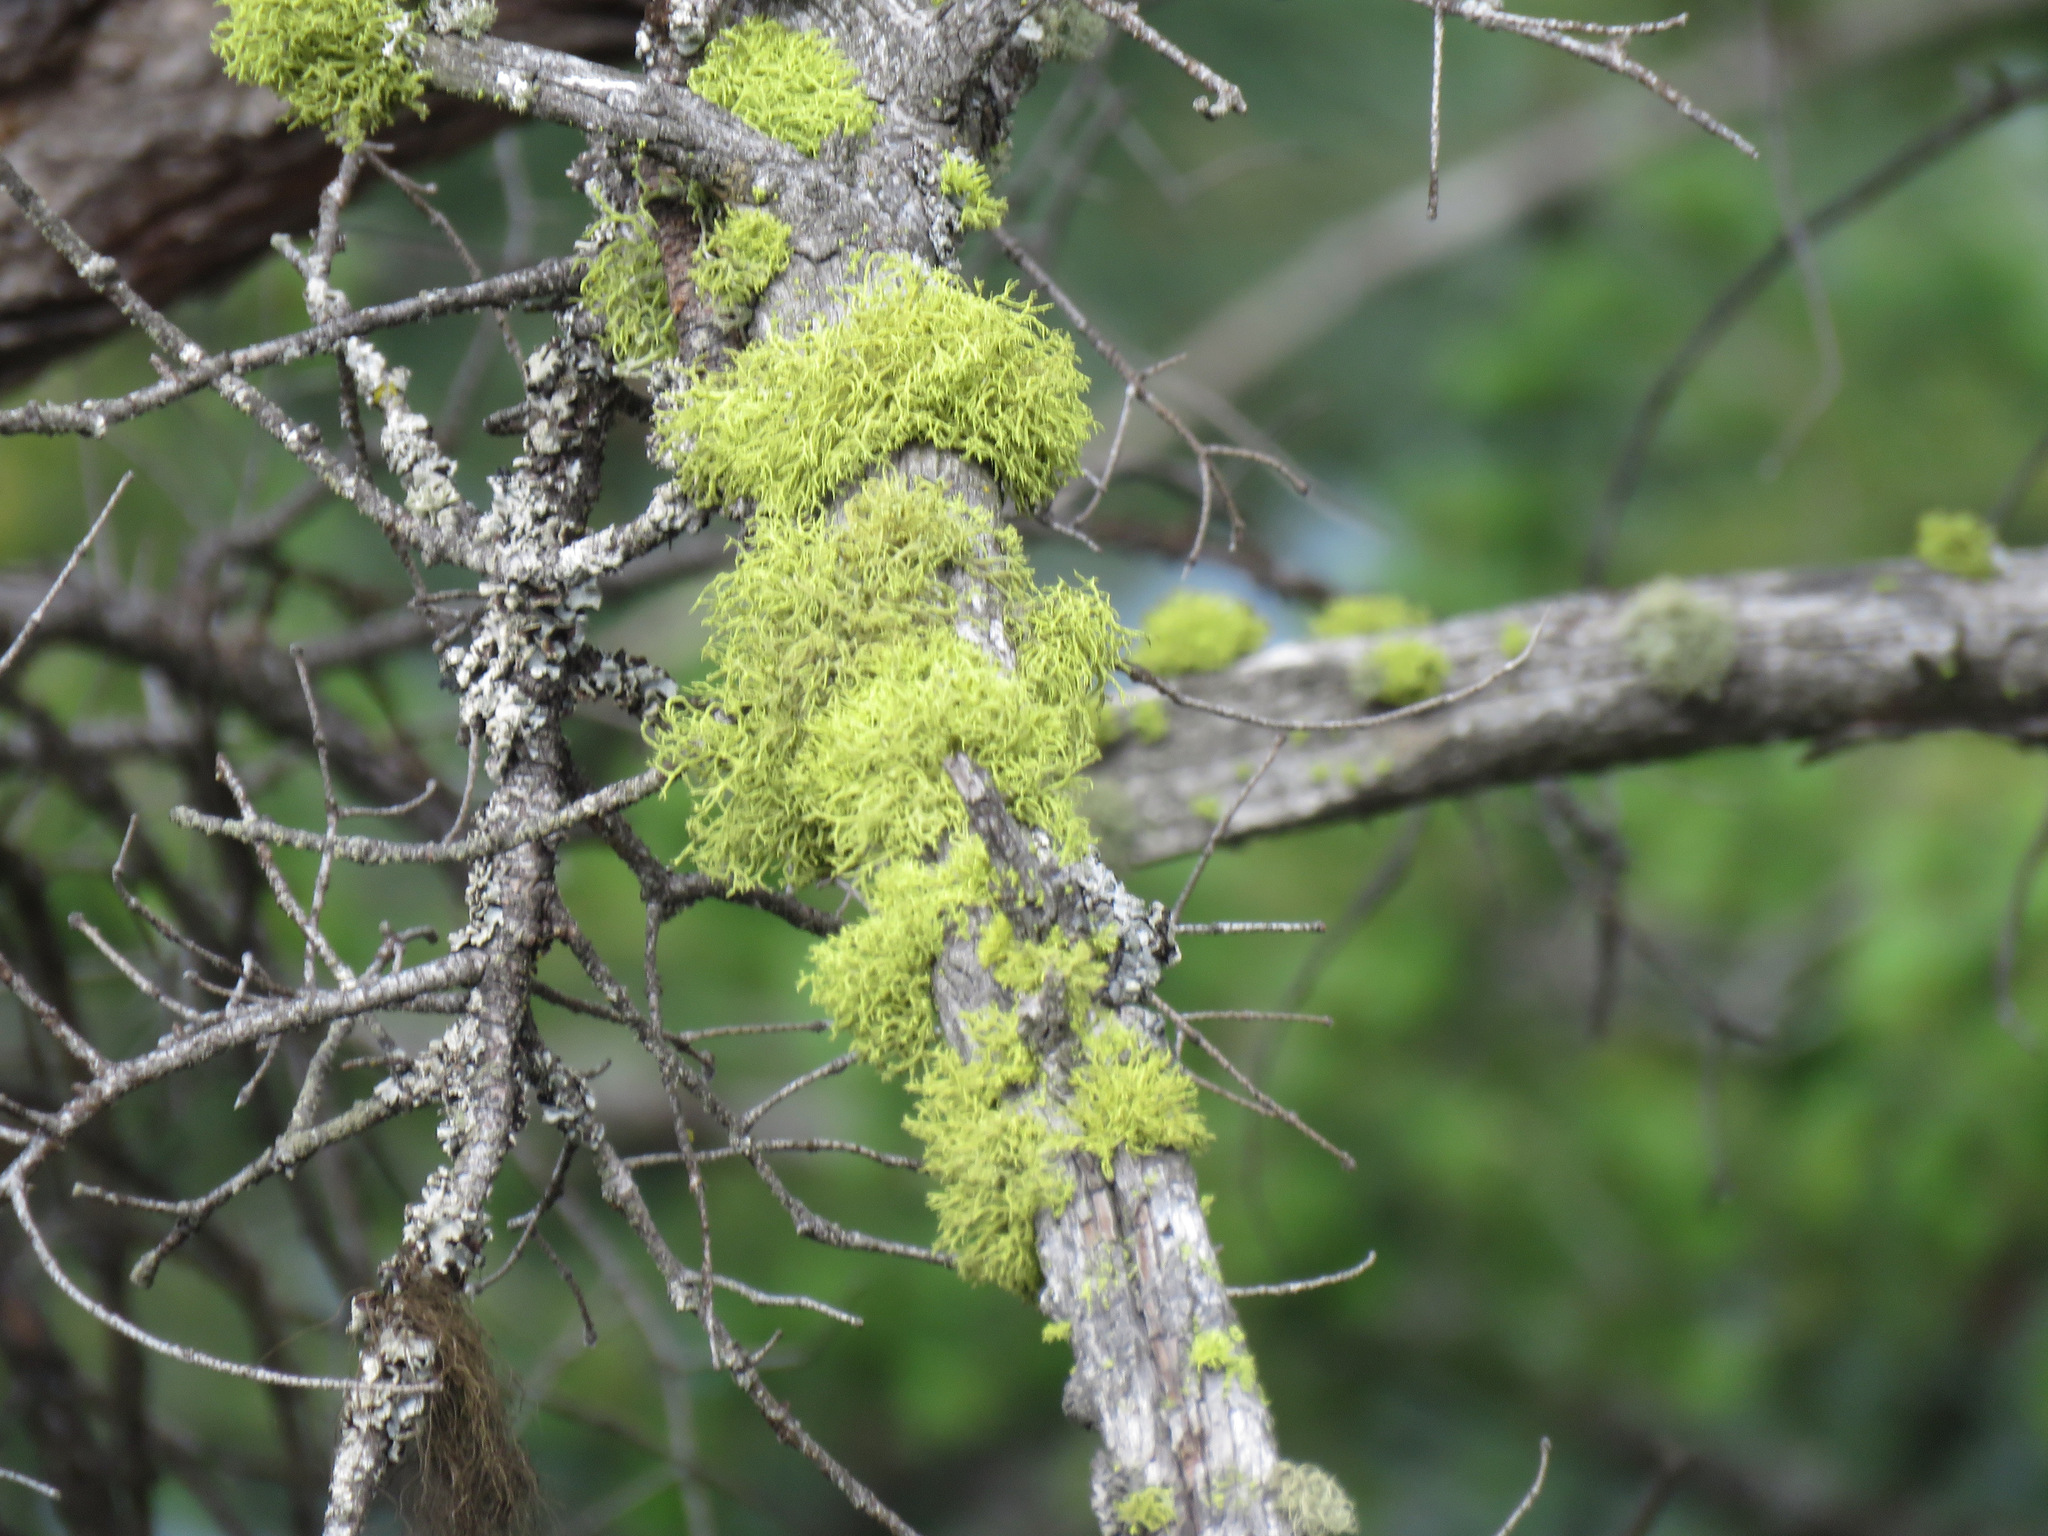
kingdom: Fungi
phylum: Ascomycota
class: Lecanoromycetes
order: Lecanorales
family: Parmeliaceae
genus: Letharia
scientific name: Letharia vulpina
